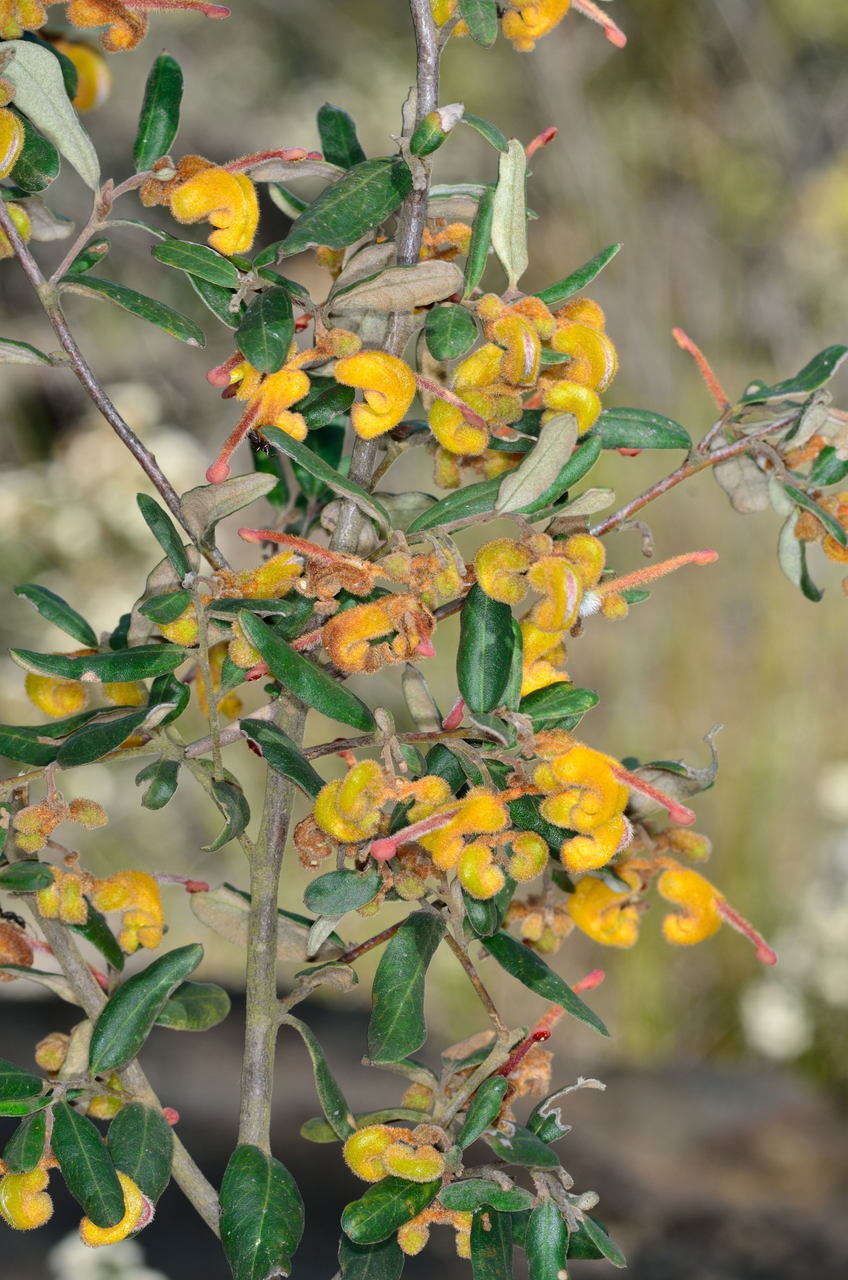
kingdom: Plantae
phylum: Tracheophyta
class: Magnoliopsida
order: Proteales
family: Proteaceae
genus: Grevillea
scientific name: Grevillea chrysophaea
